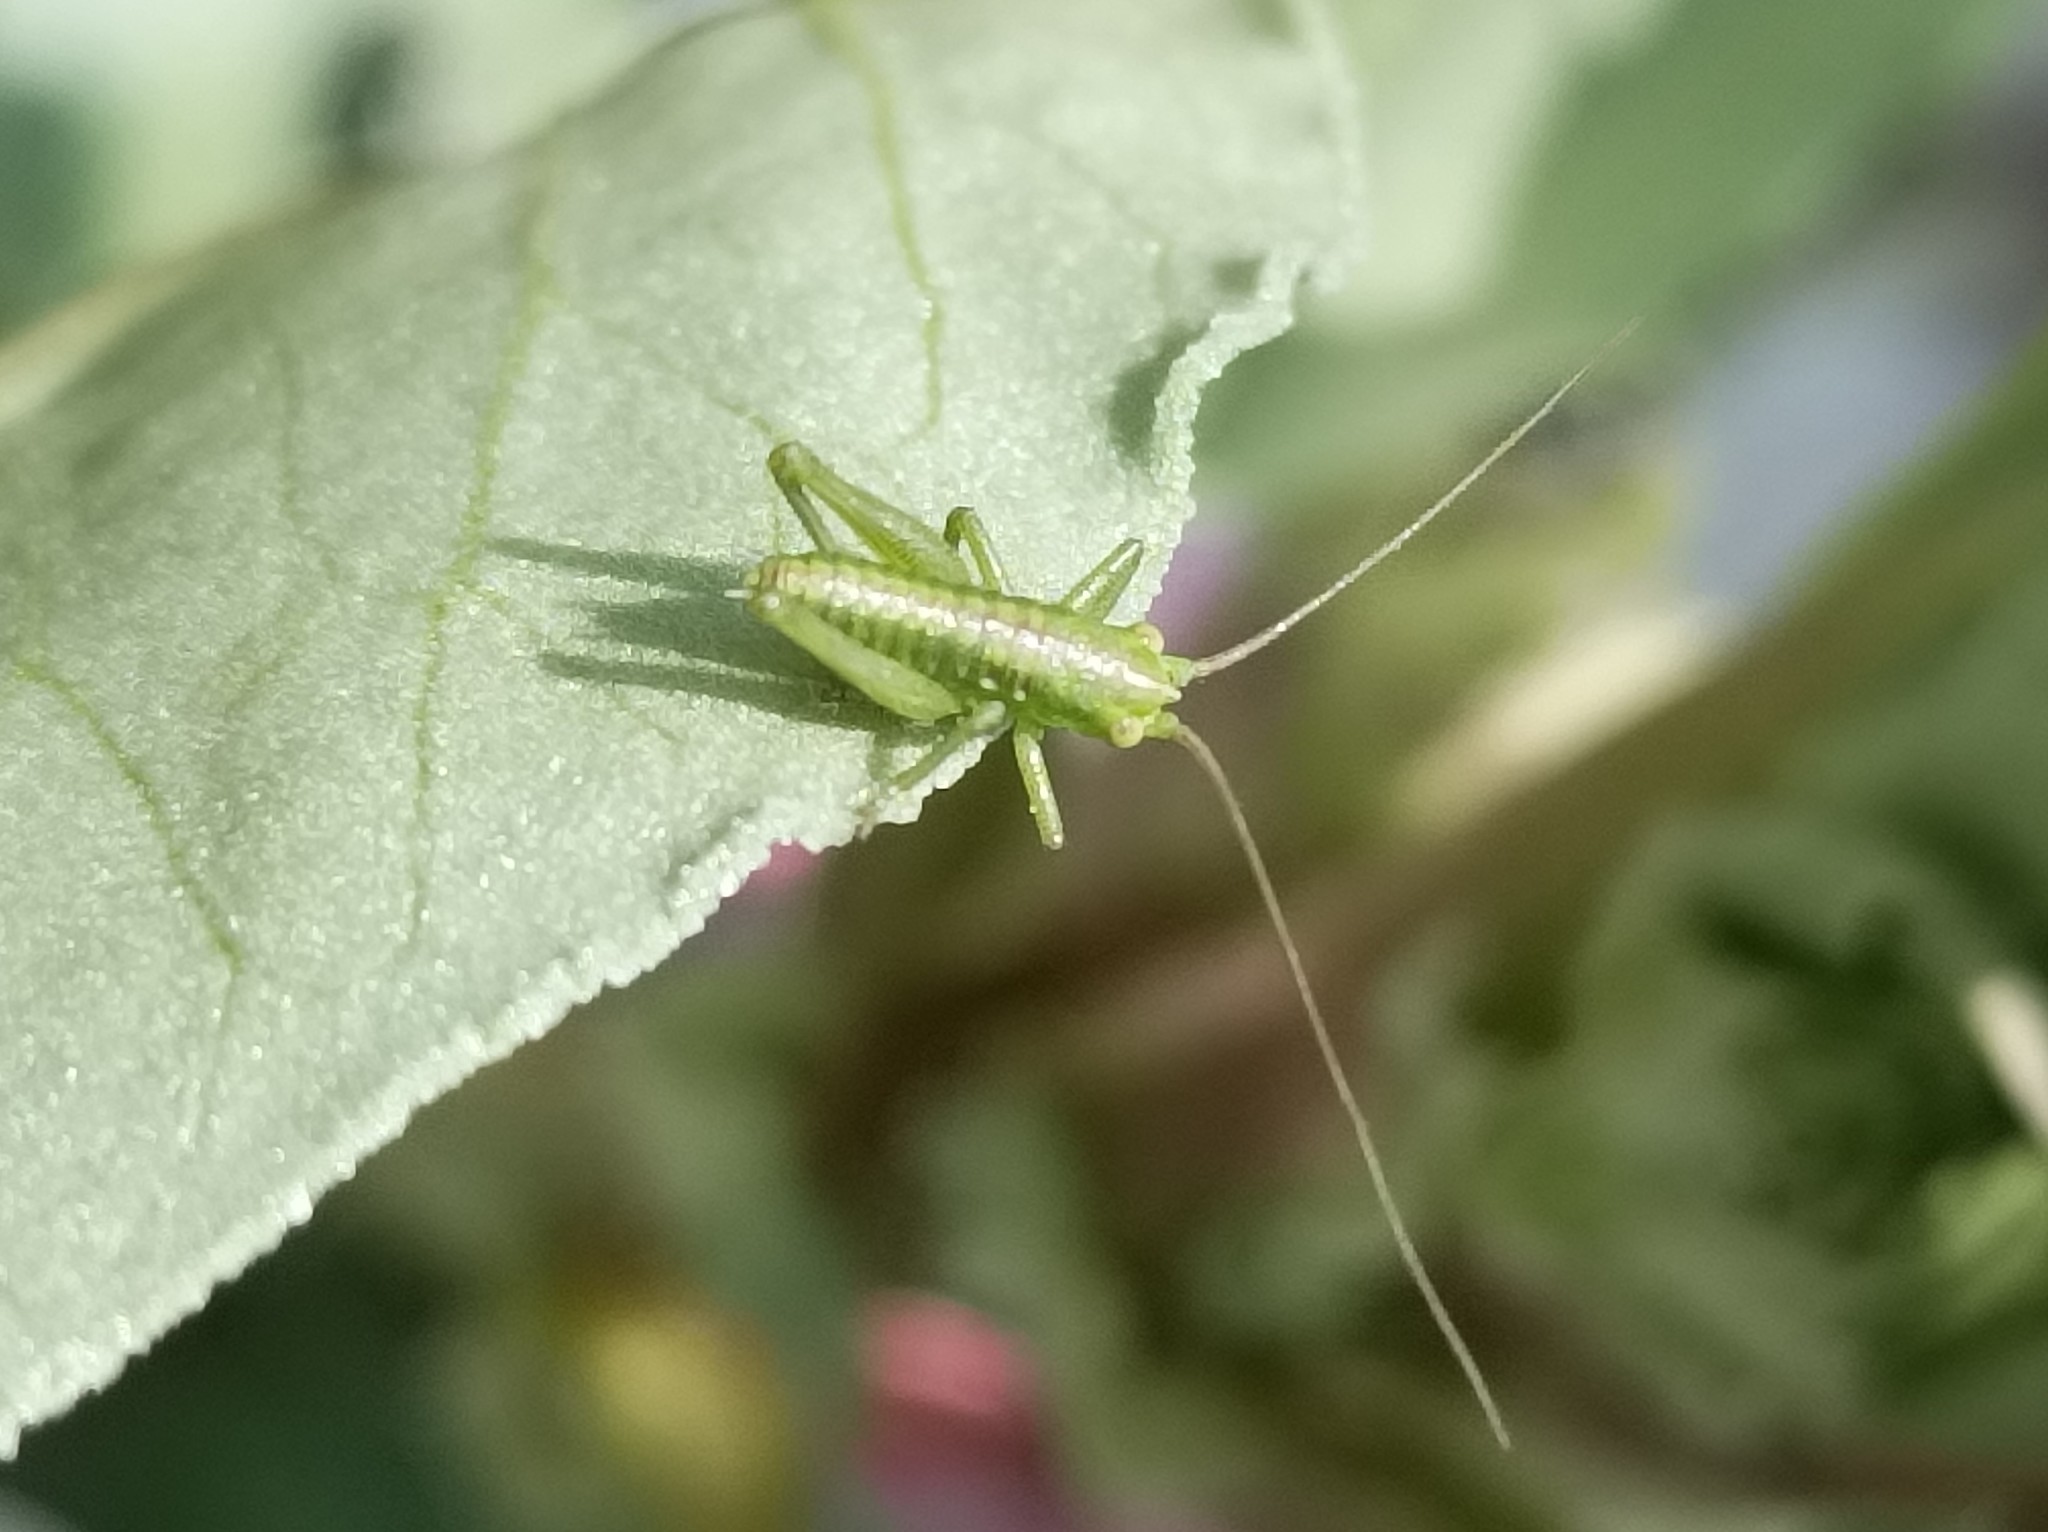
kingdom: Animalia
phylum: Arthropoda
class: Insecta
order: Orthoptera
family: Tettigoniidae
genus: Tettigonia
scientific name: Tettigonia viridissima
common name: Great green bush-cricket
